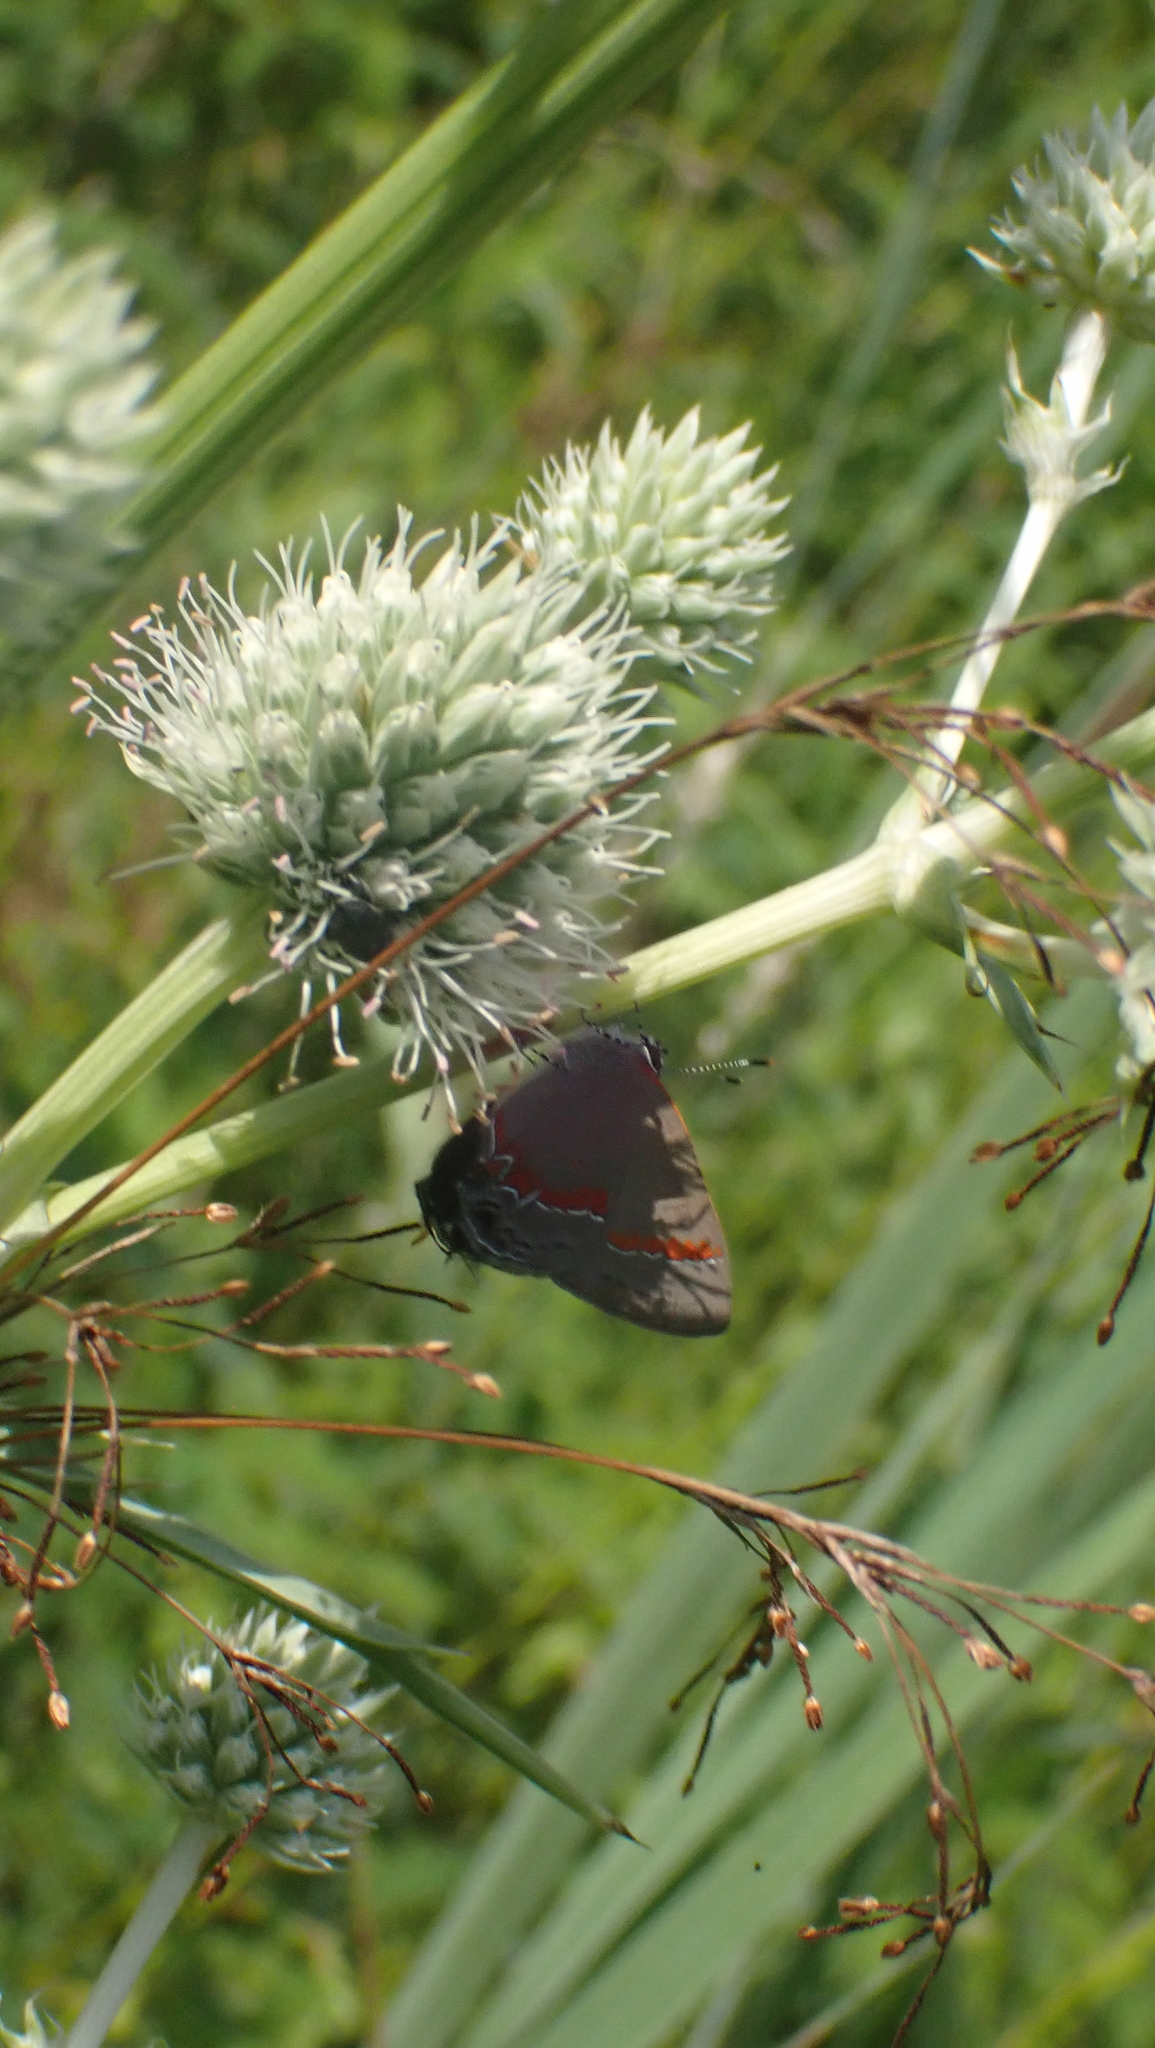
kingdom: Animalia
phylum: Arthropoda
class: Insecta
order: Lepidoptera
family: Lycaenidae
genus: Calycopis
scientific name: Calycopis cecrops
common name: Red-banded hairstreak
